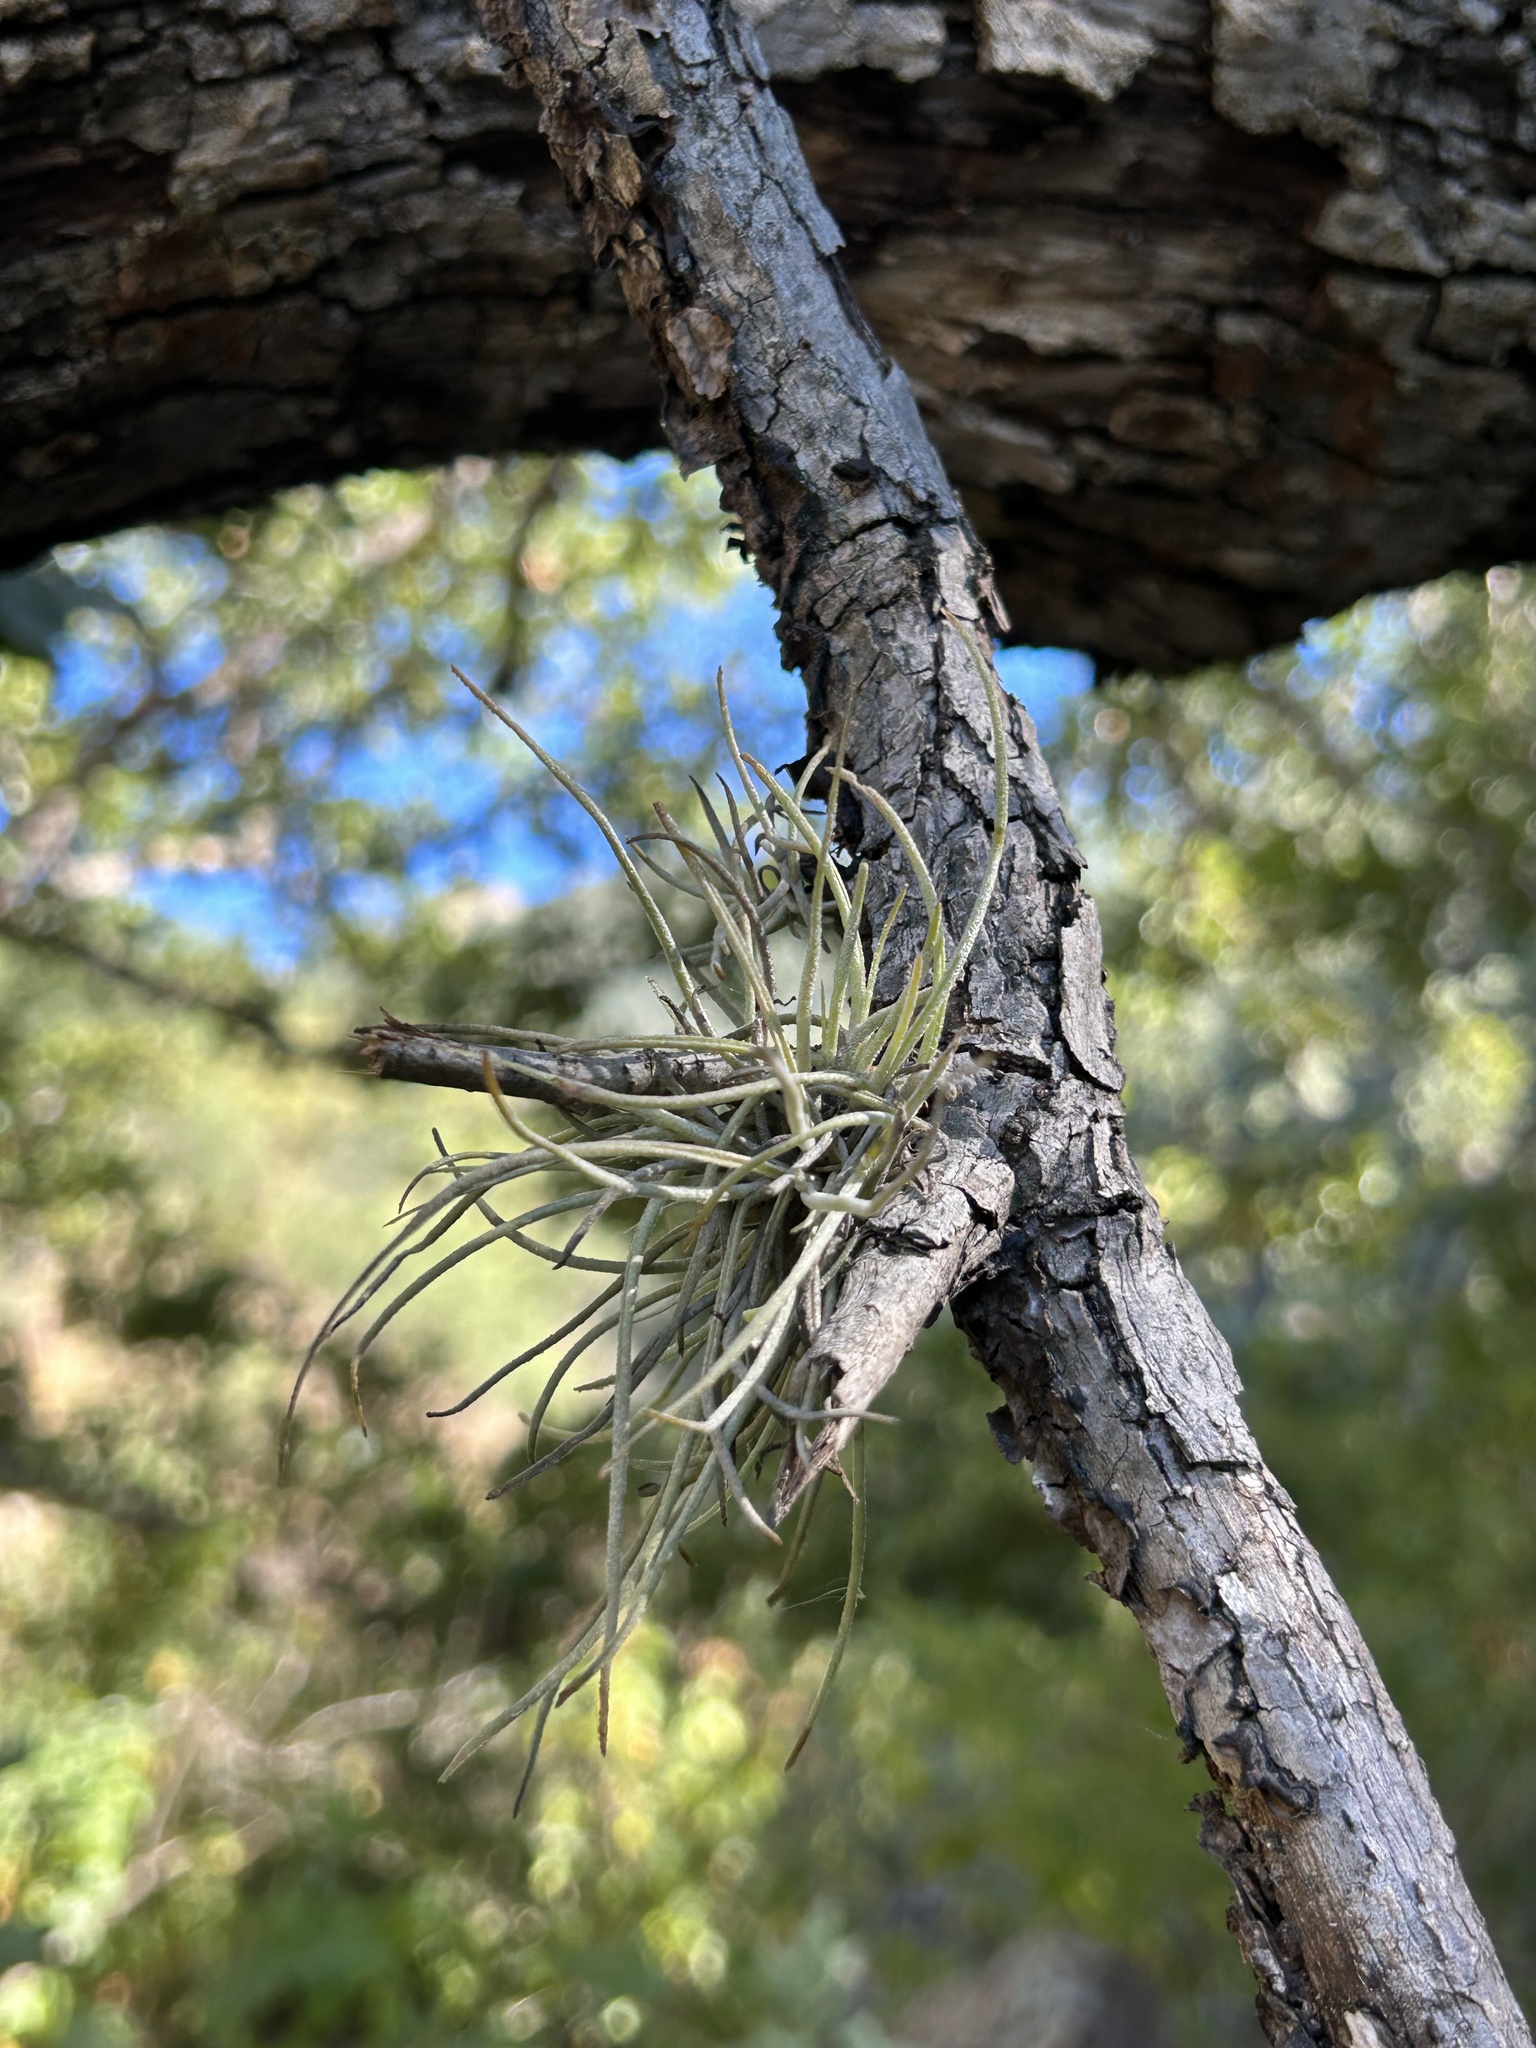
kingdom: Plantae
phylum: Tracheophyta
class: Liliopsida
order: Poales
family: Bromeliaceae
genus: Tillandsia
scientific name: Tillandsia recurvata
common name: Small ballmoss
